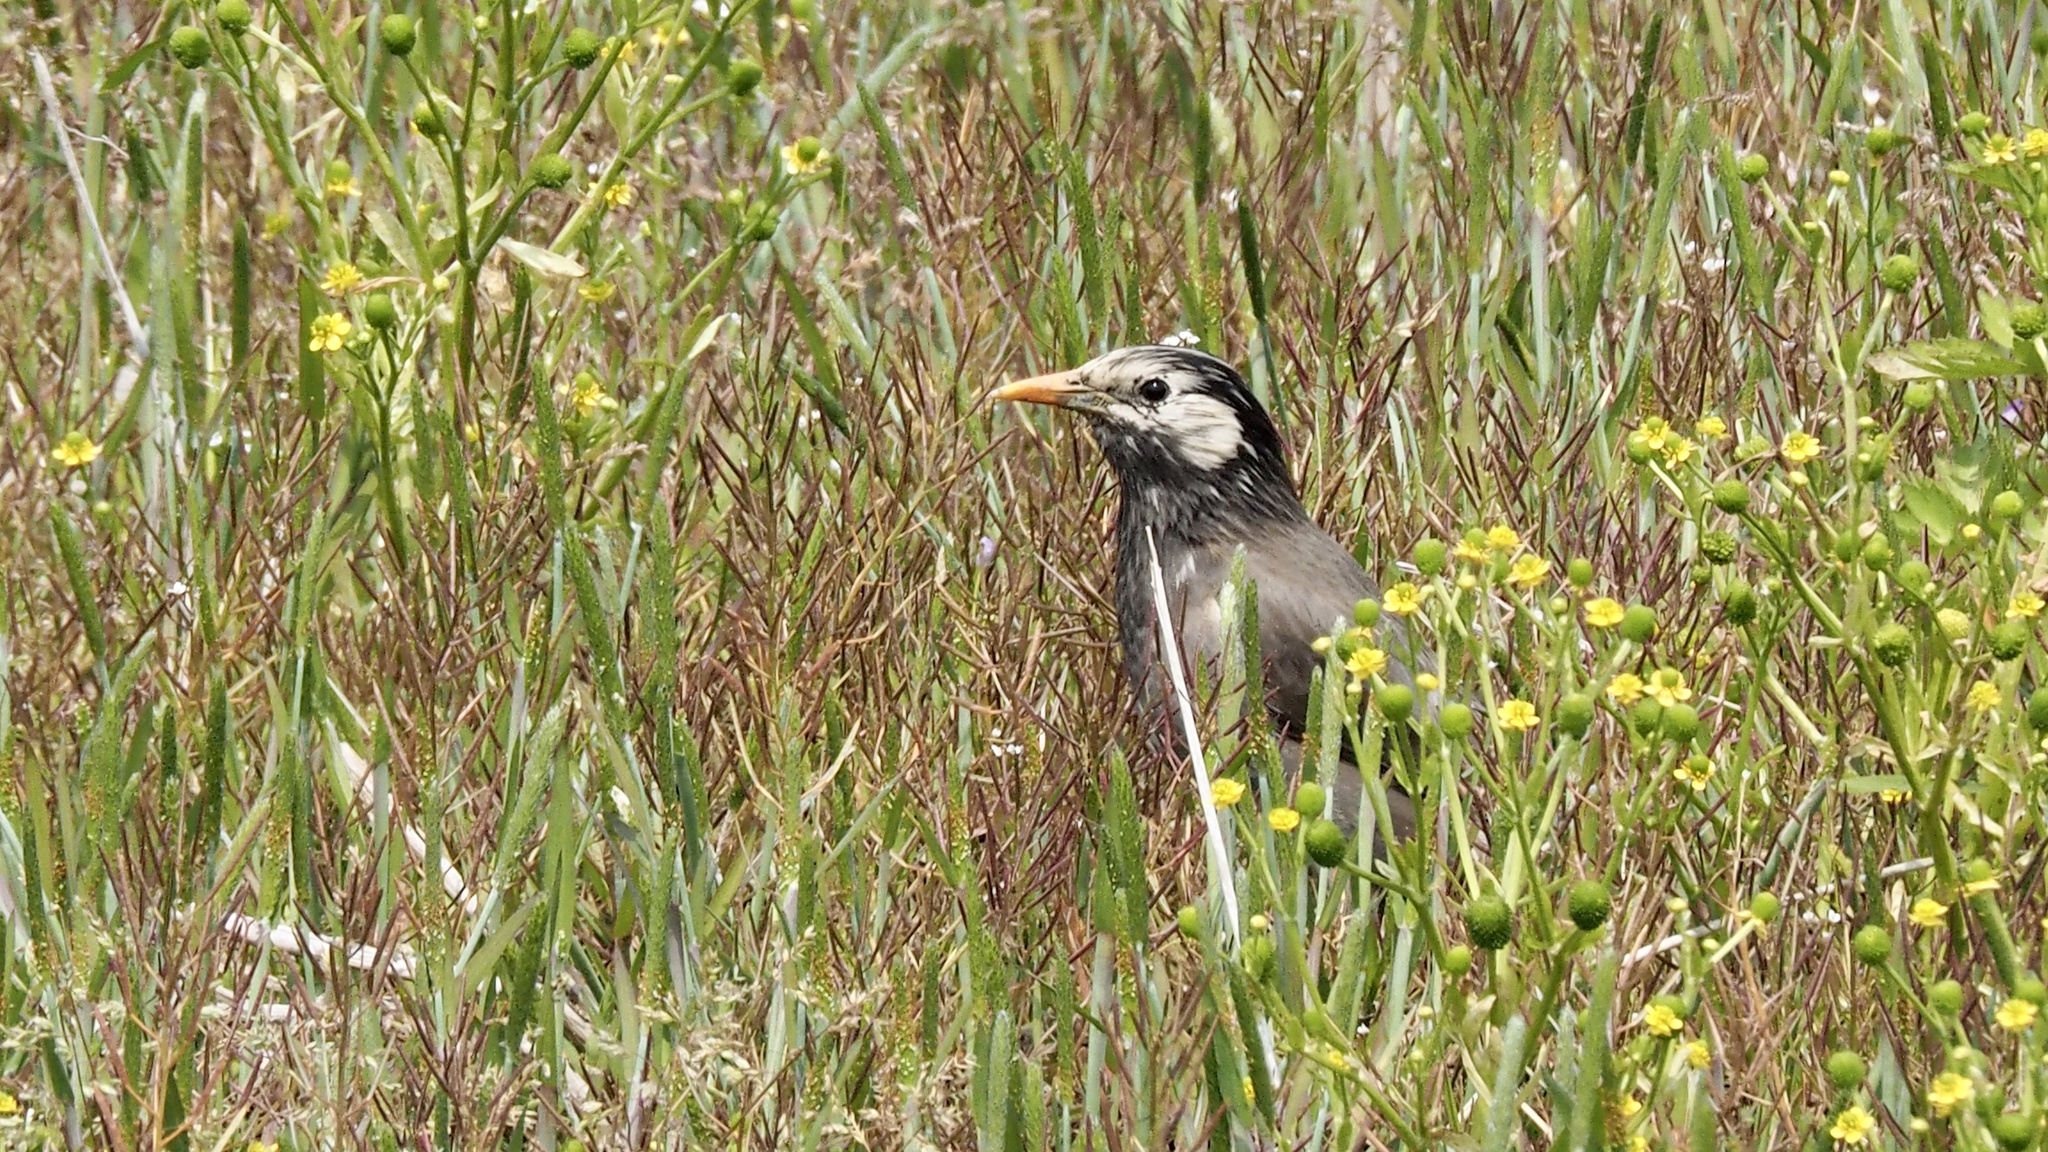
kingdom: Animalia
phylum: Chordata
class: Aves
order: Passeriformes
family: Sturnidae
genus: Spodiopsar
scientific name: Spodiopsar cineraceus
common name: White-cheeked starling
